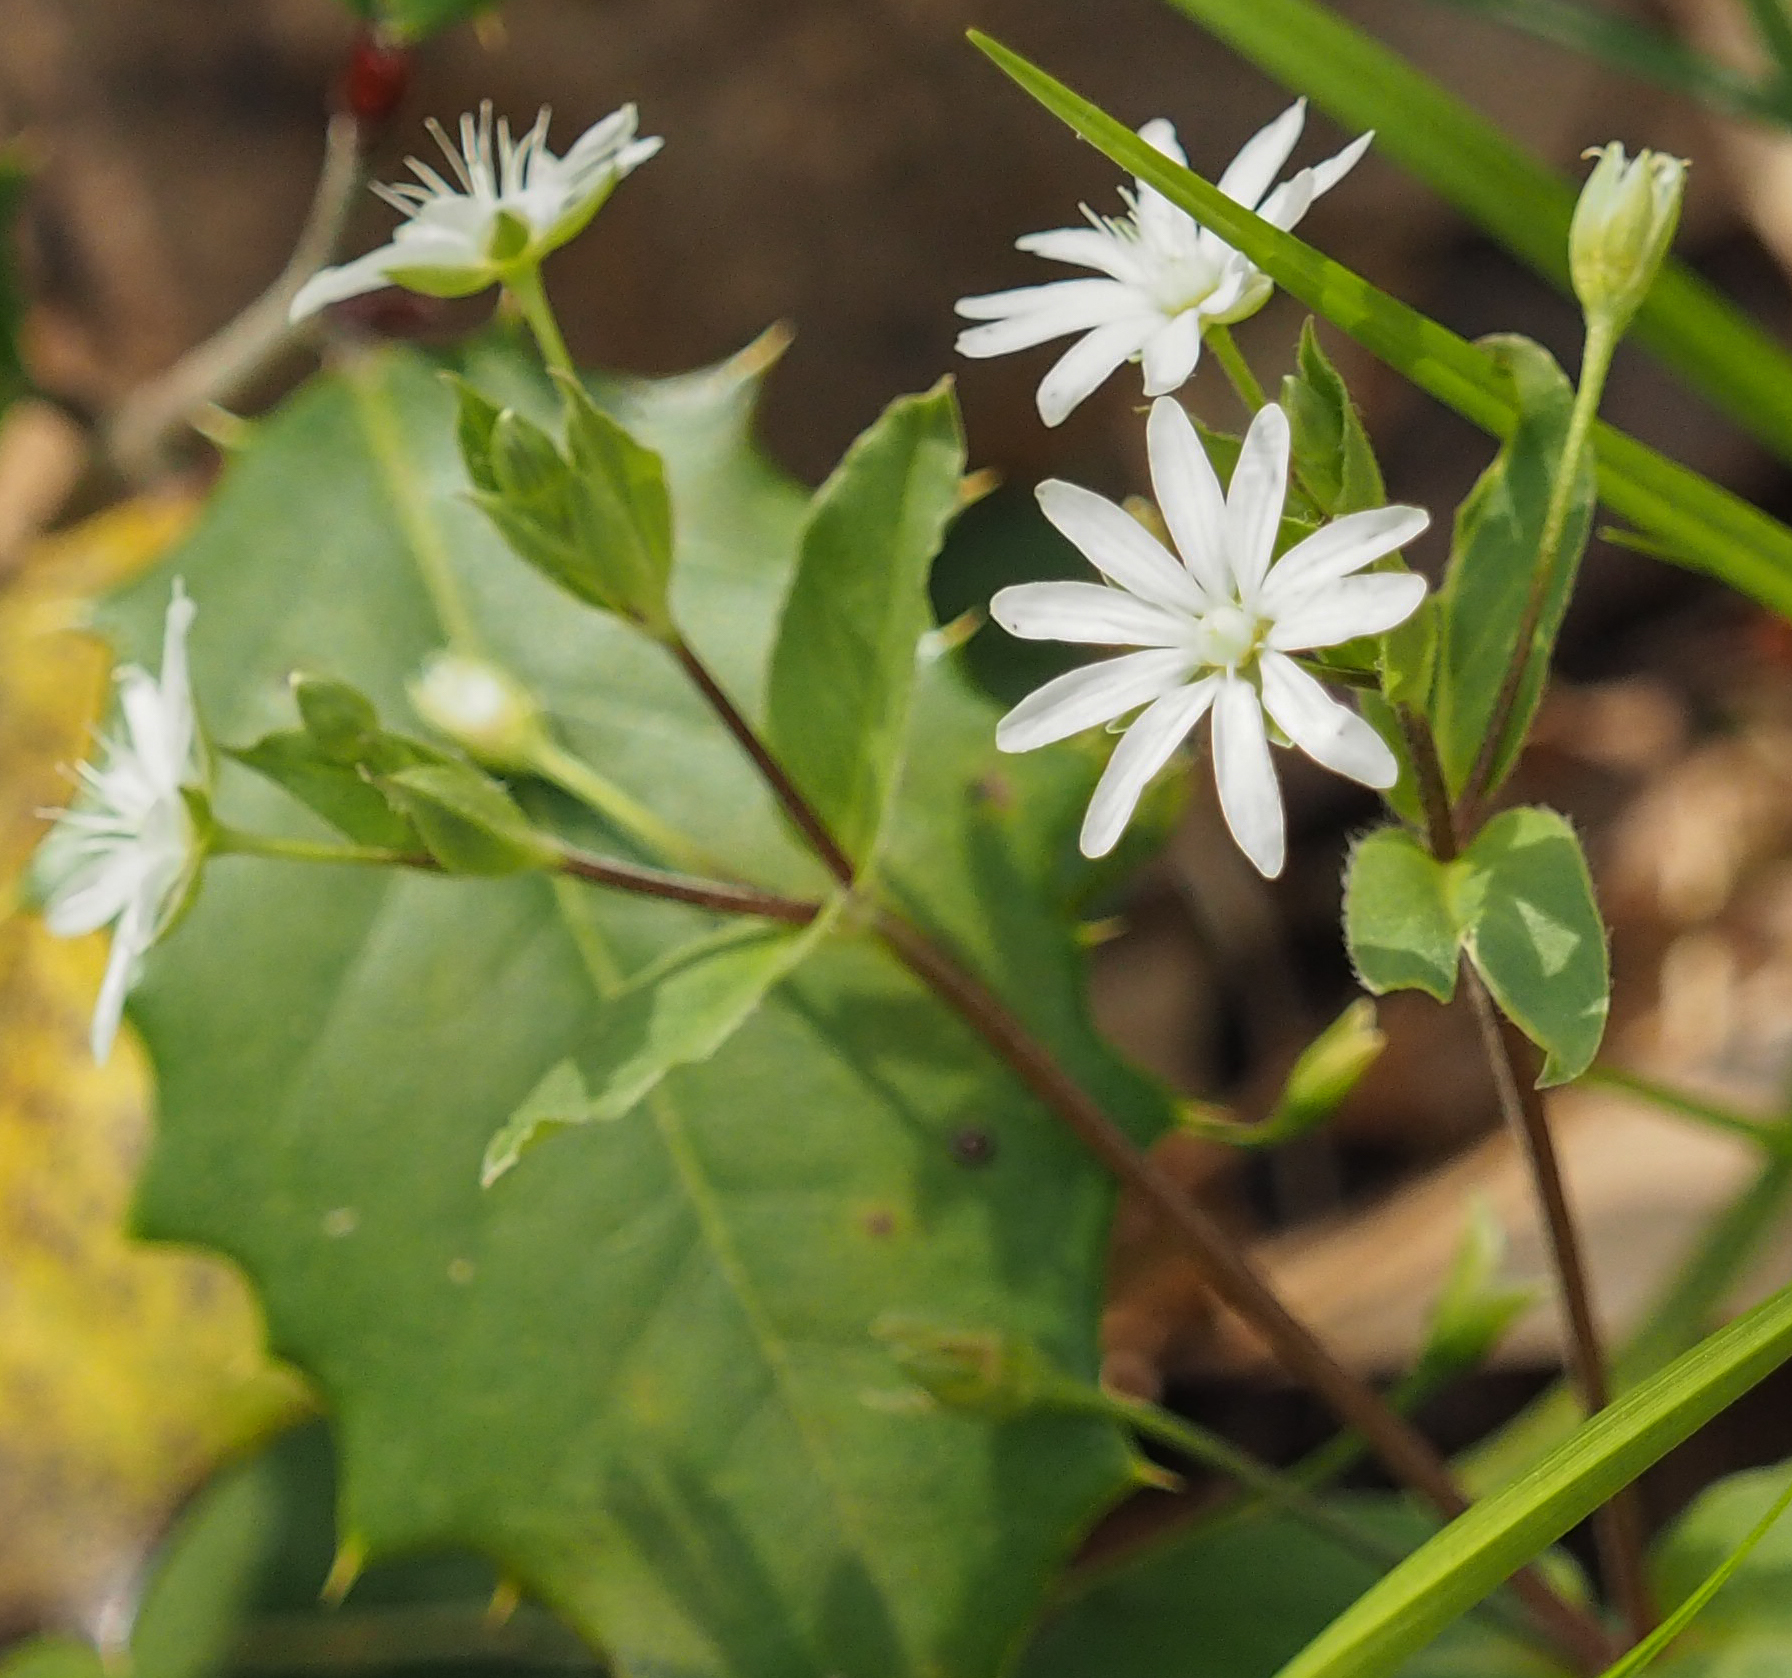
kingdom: Plantae
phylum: Tracheophyta
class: Magnoliopsida
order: Caryophyllales
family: Caryophyllaceae
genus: Stellaria
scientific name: Stellaria pubera
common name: Star chickweed
